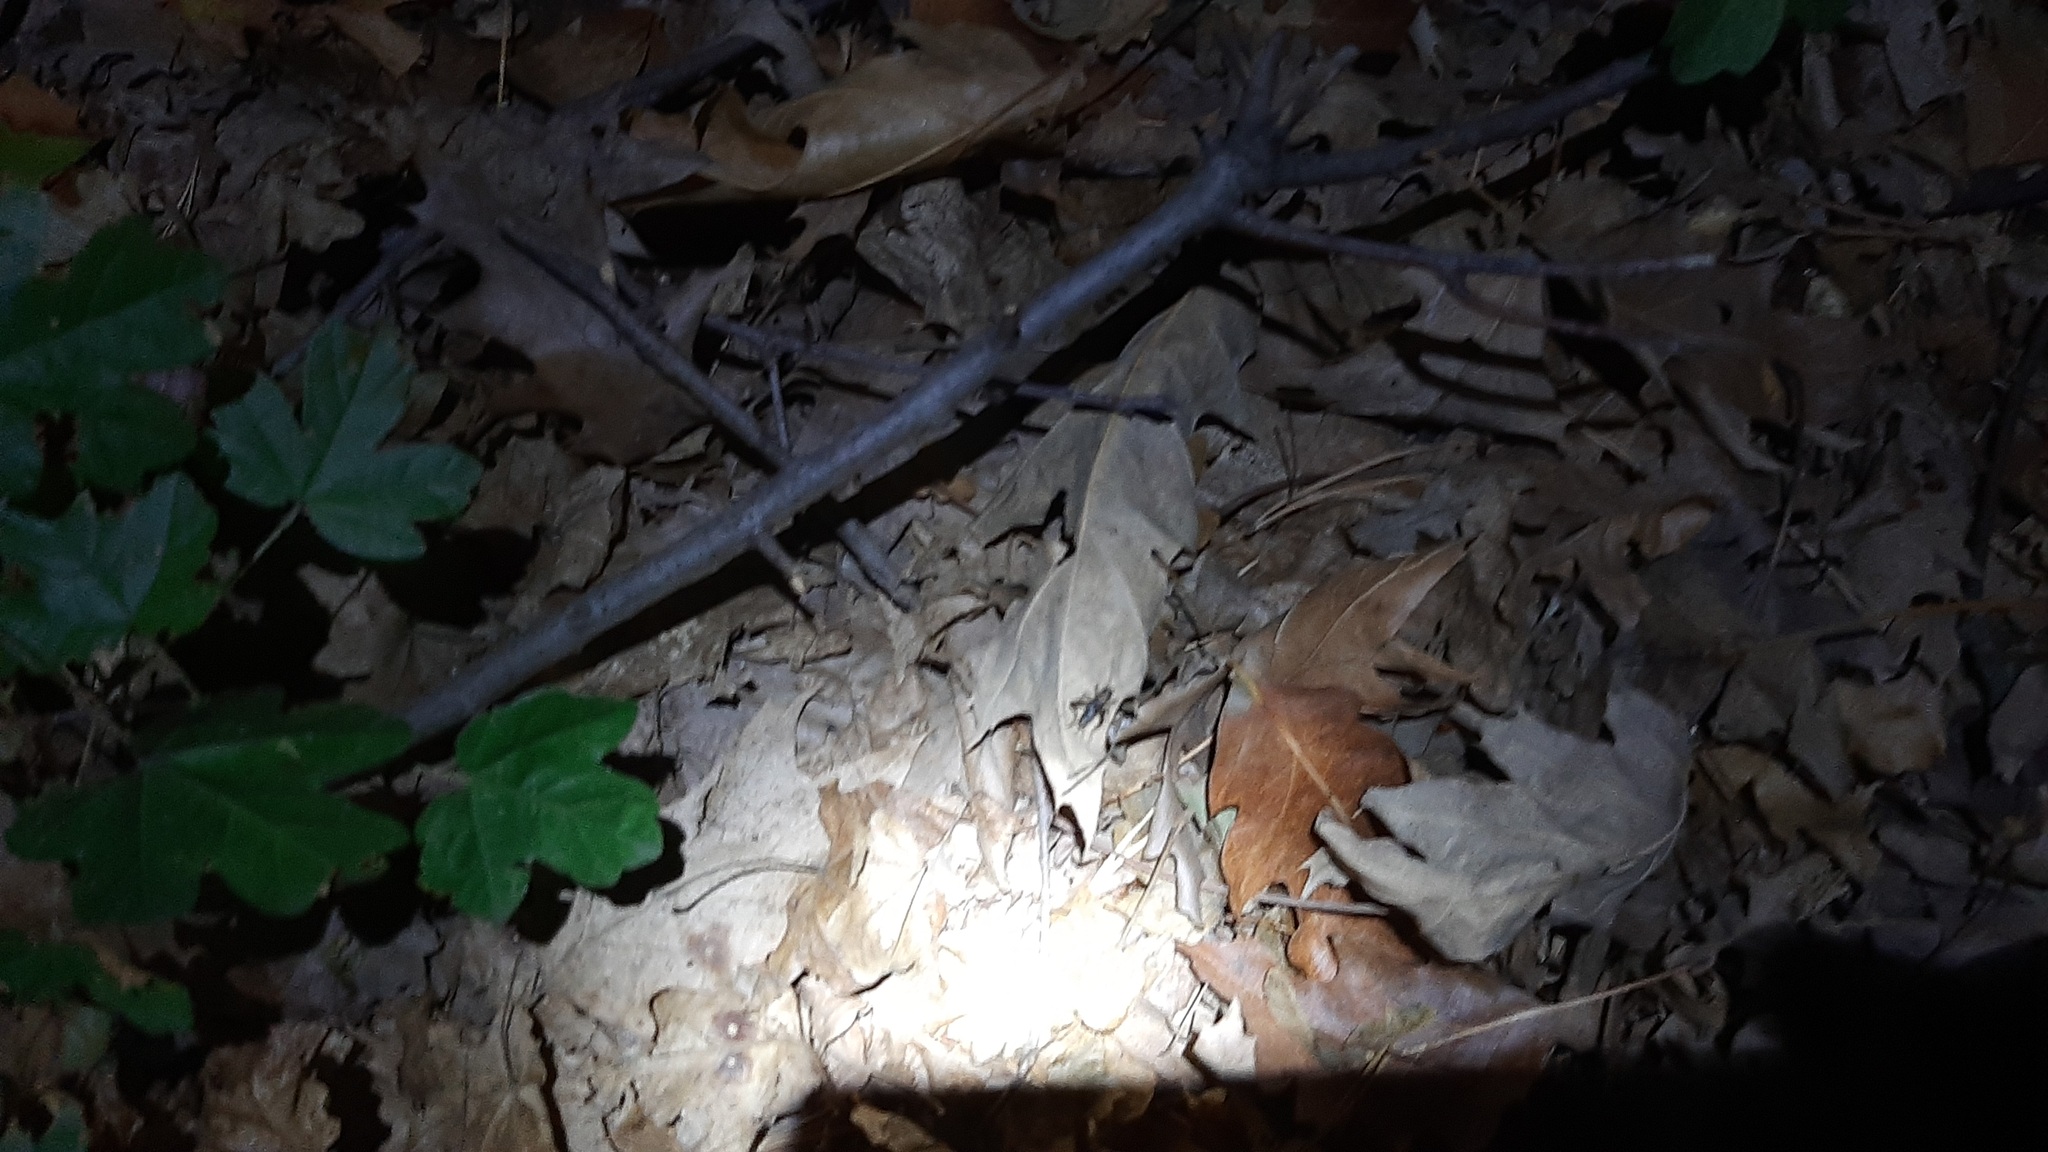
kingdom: Animalia
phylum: Arthropoda
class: Insecta
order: Orthoptera
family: Trigonidiidae
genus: Nemobius
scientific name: Nemobius sylvestris
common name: Wood-cricket
